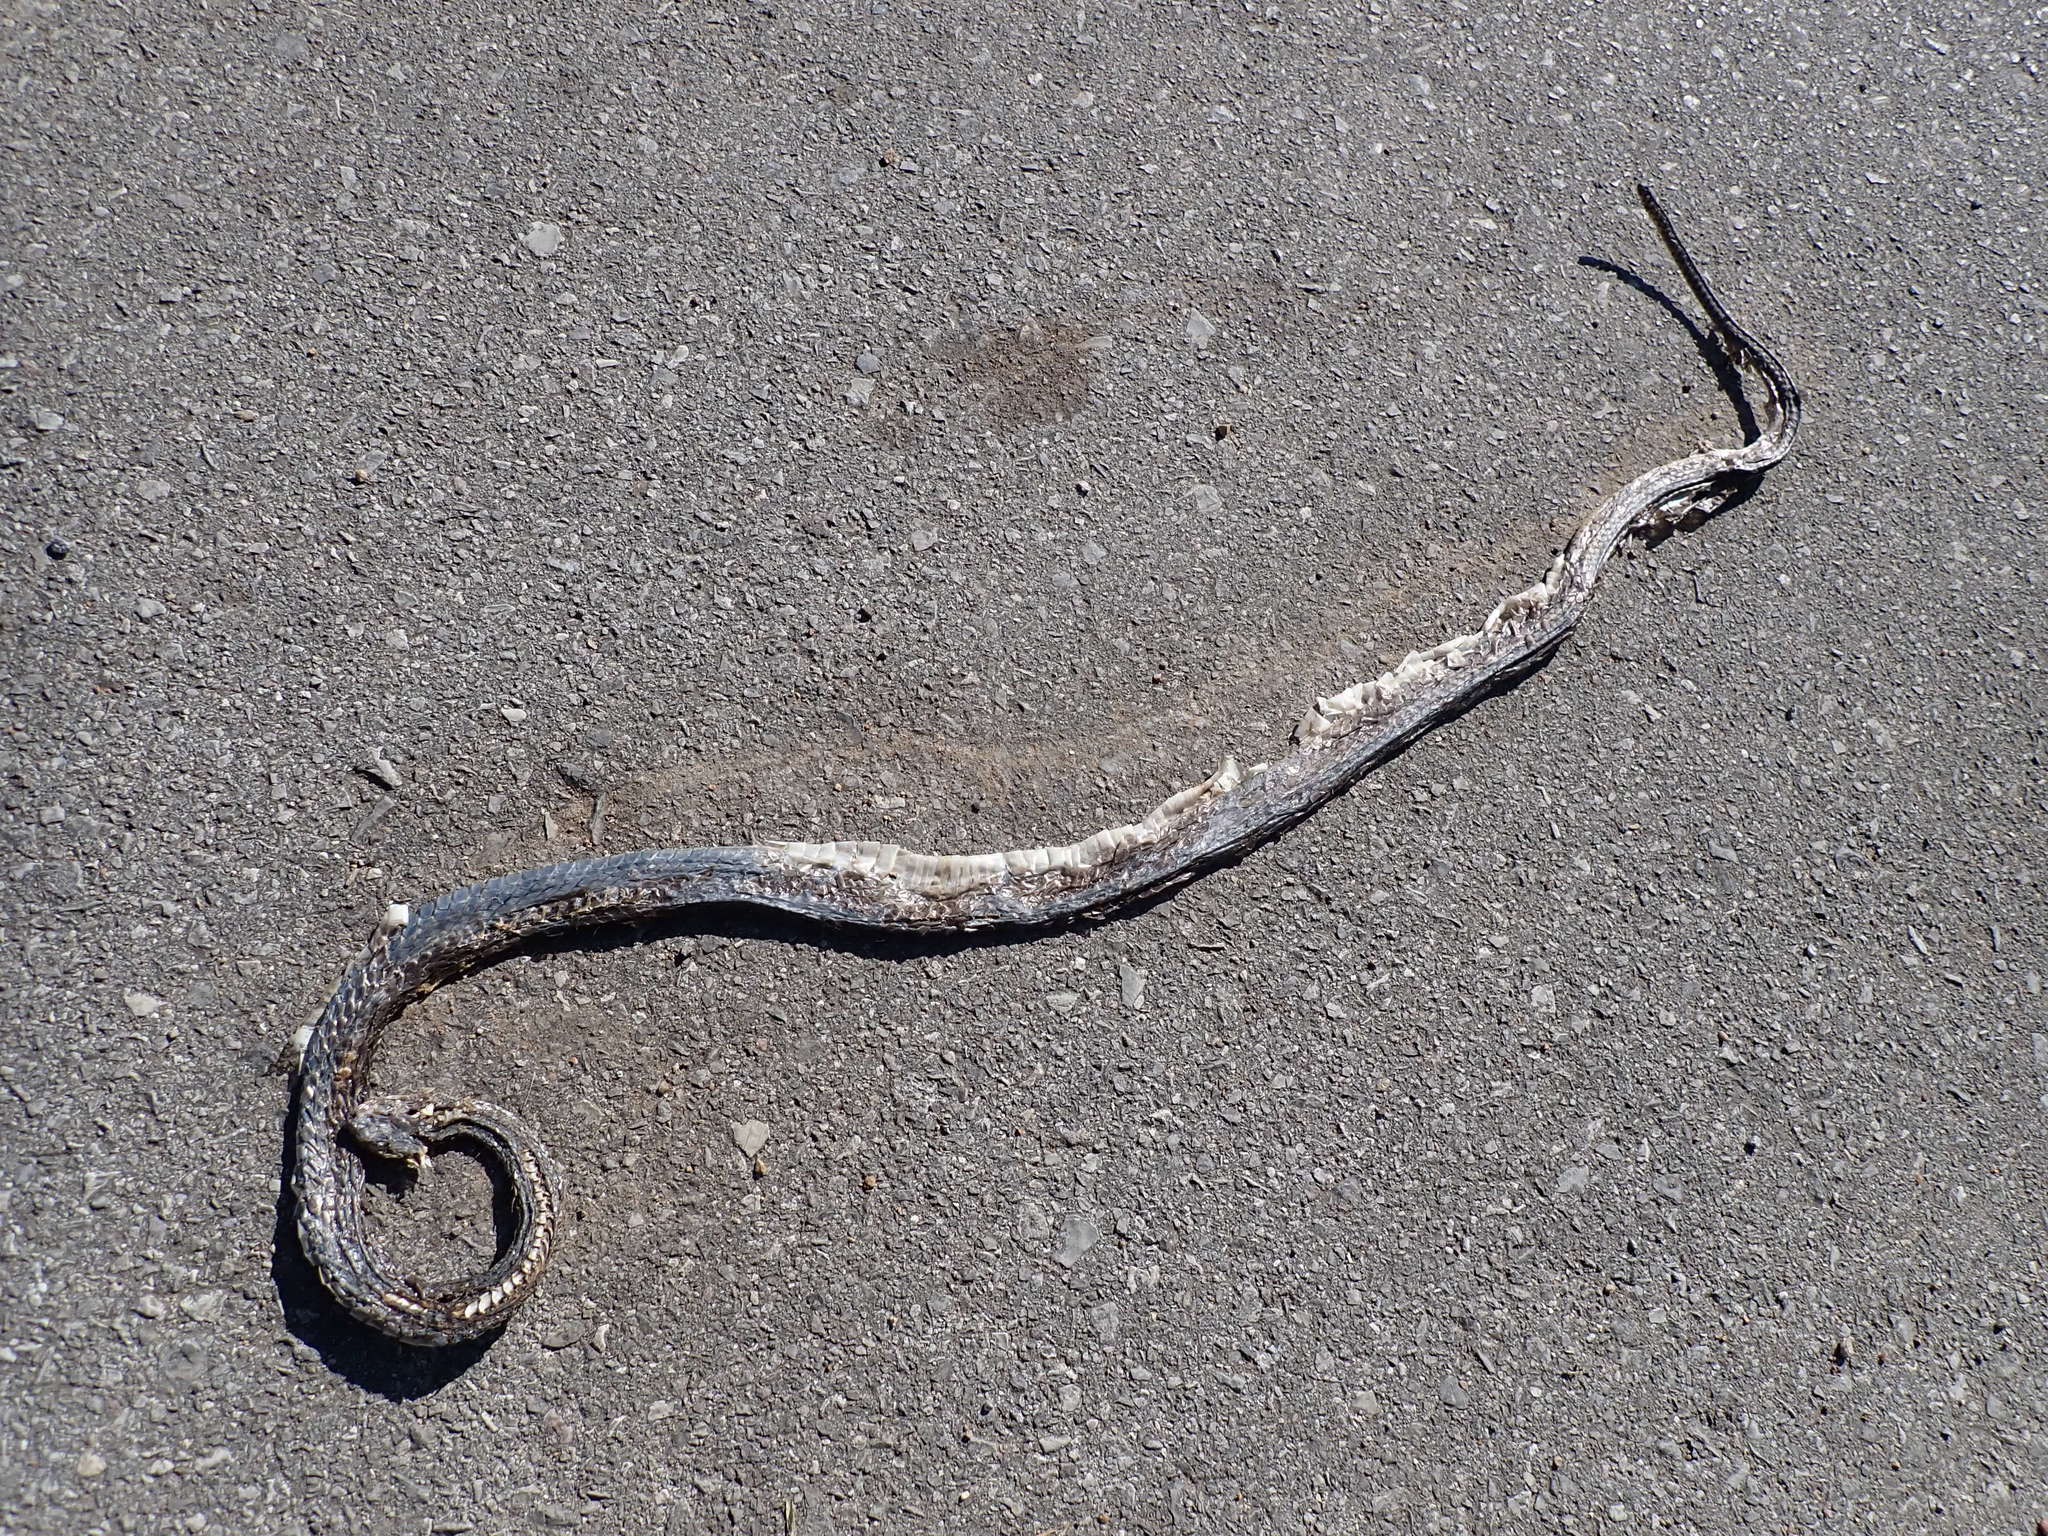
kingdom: Animalia
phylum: Chordata
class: Squamata
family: Colubridae
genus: Ptyas
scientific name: Ptyas korros
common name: Indo-chinese rat snake
